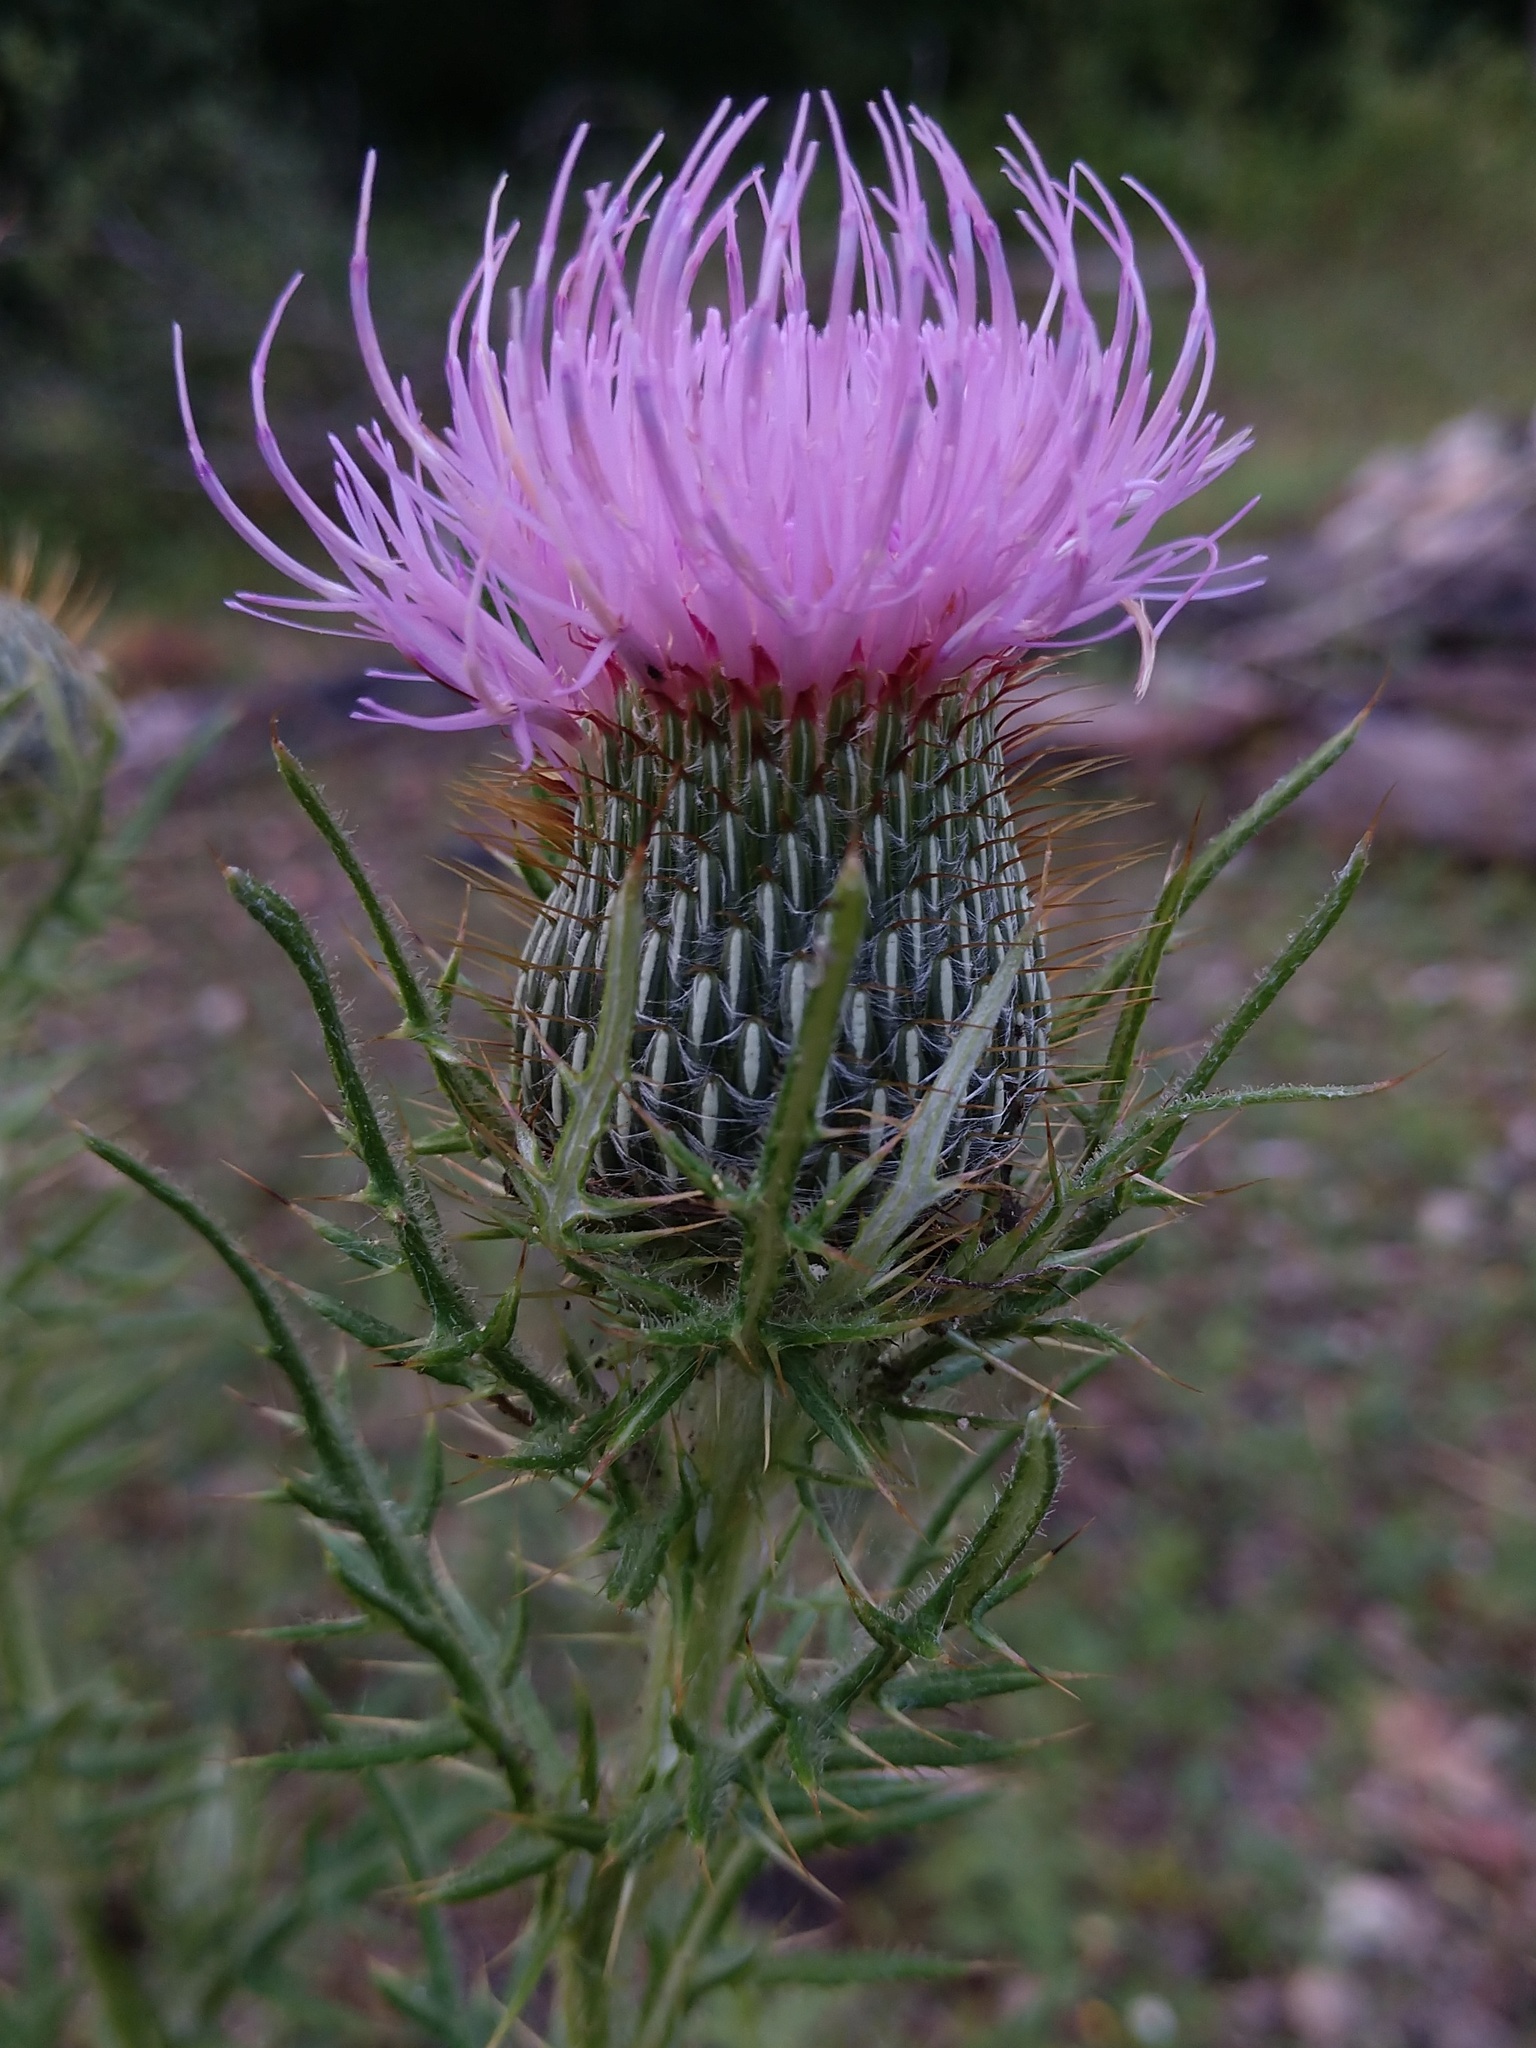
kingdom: Plantae
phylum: Tracheophyta
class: Magnoliopsida
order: Asterales
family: Asteraceae
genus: Cirsium
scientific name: Cirsium discolor
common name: Field thistle
